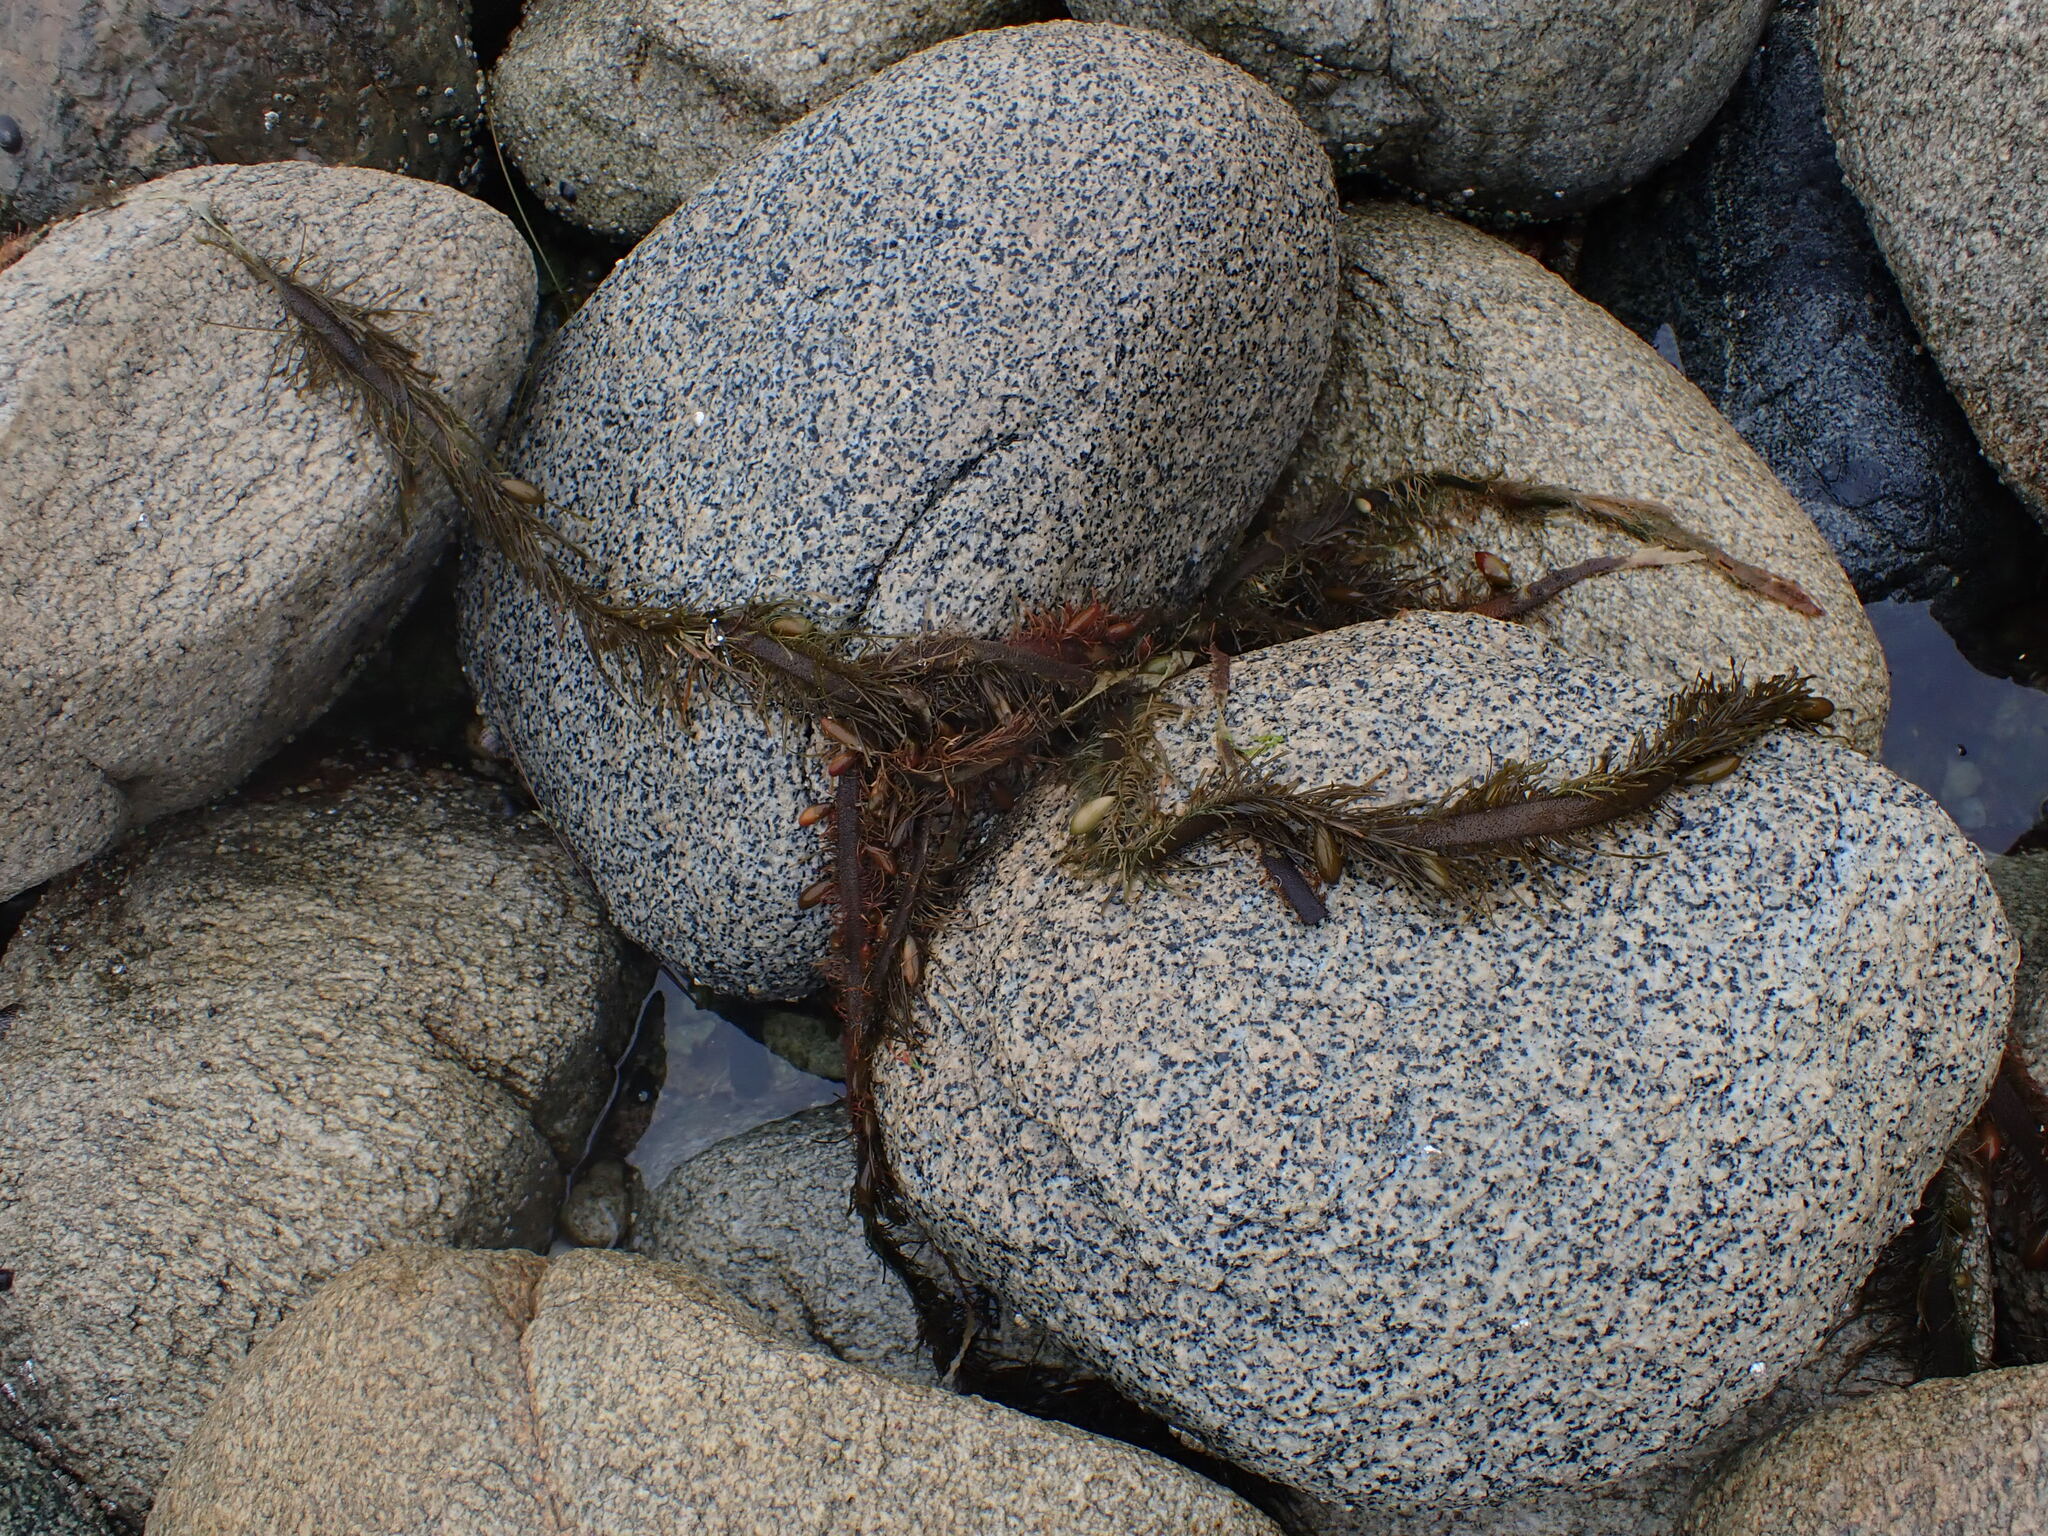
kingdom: Chromista
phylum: Ochrophyta
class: Phaeophyceae
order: Laminariales
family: Lessoniaceae
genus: Egregia
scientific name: Egregia menziesii
